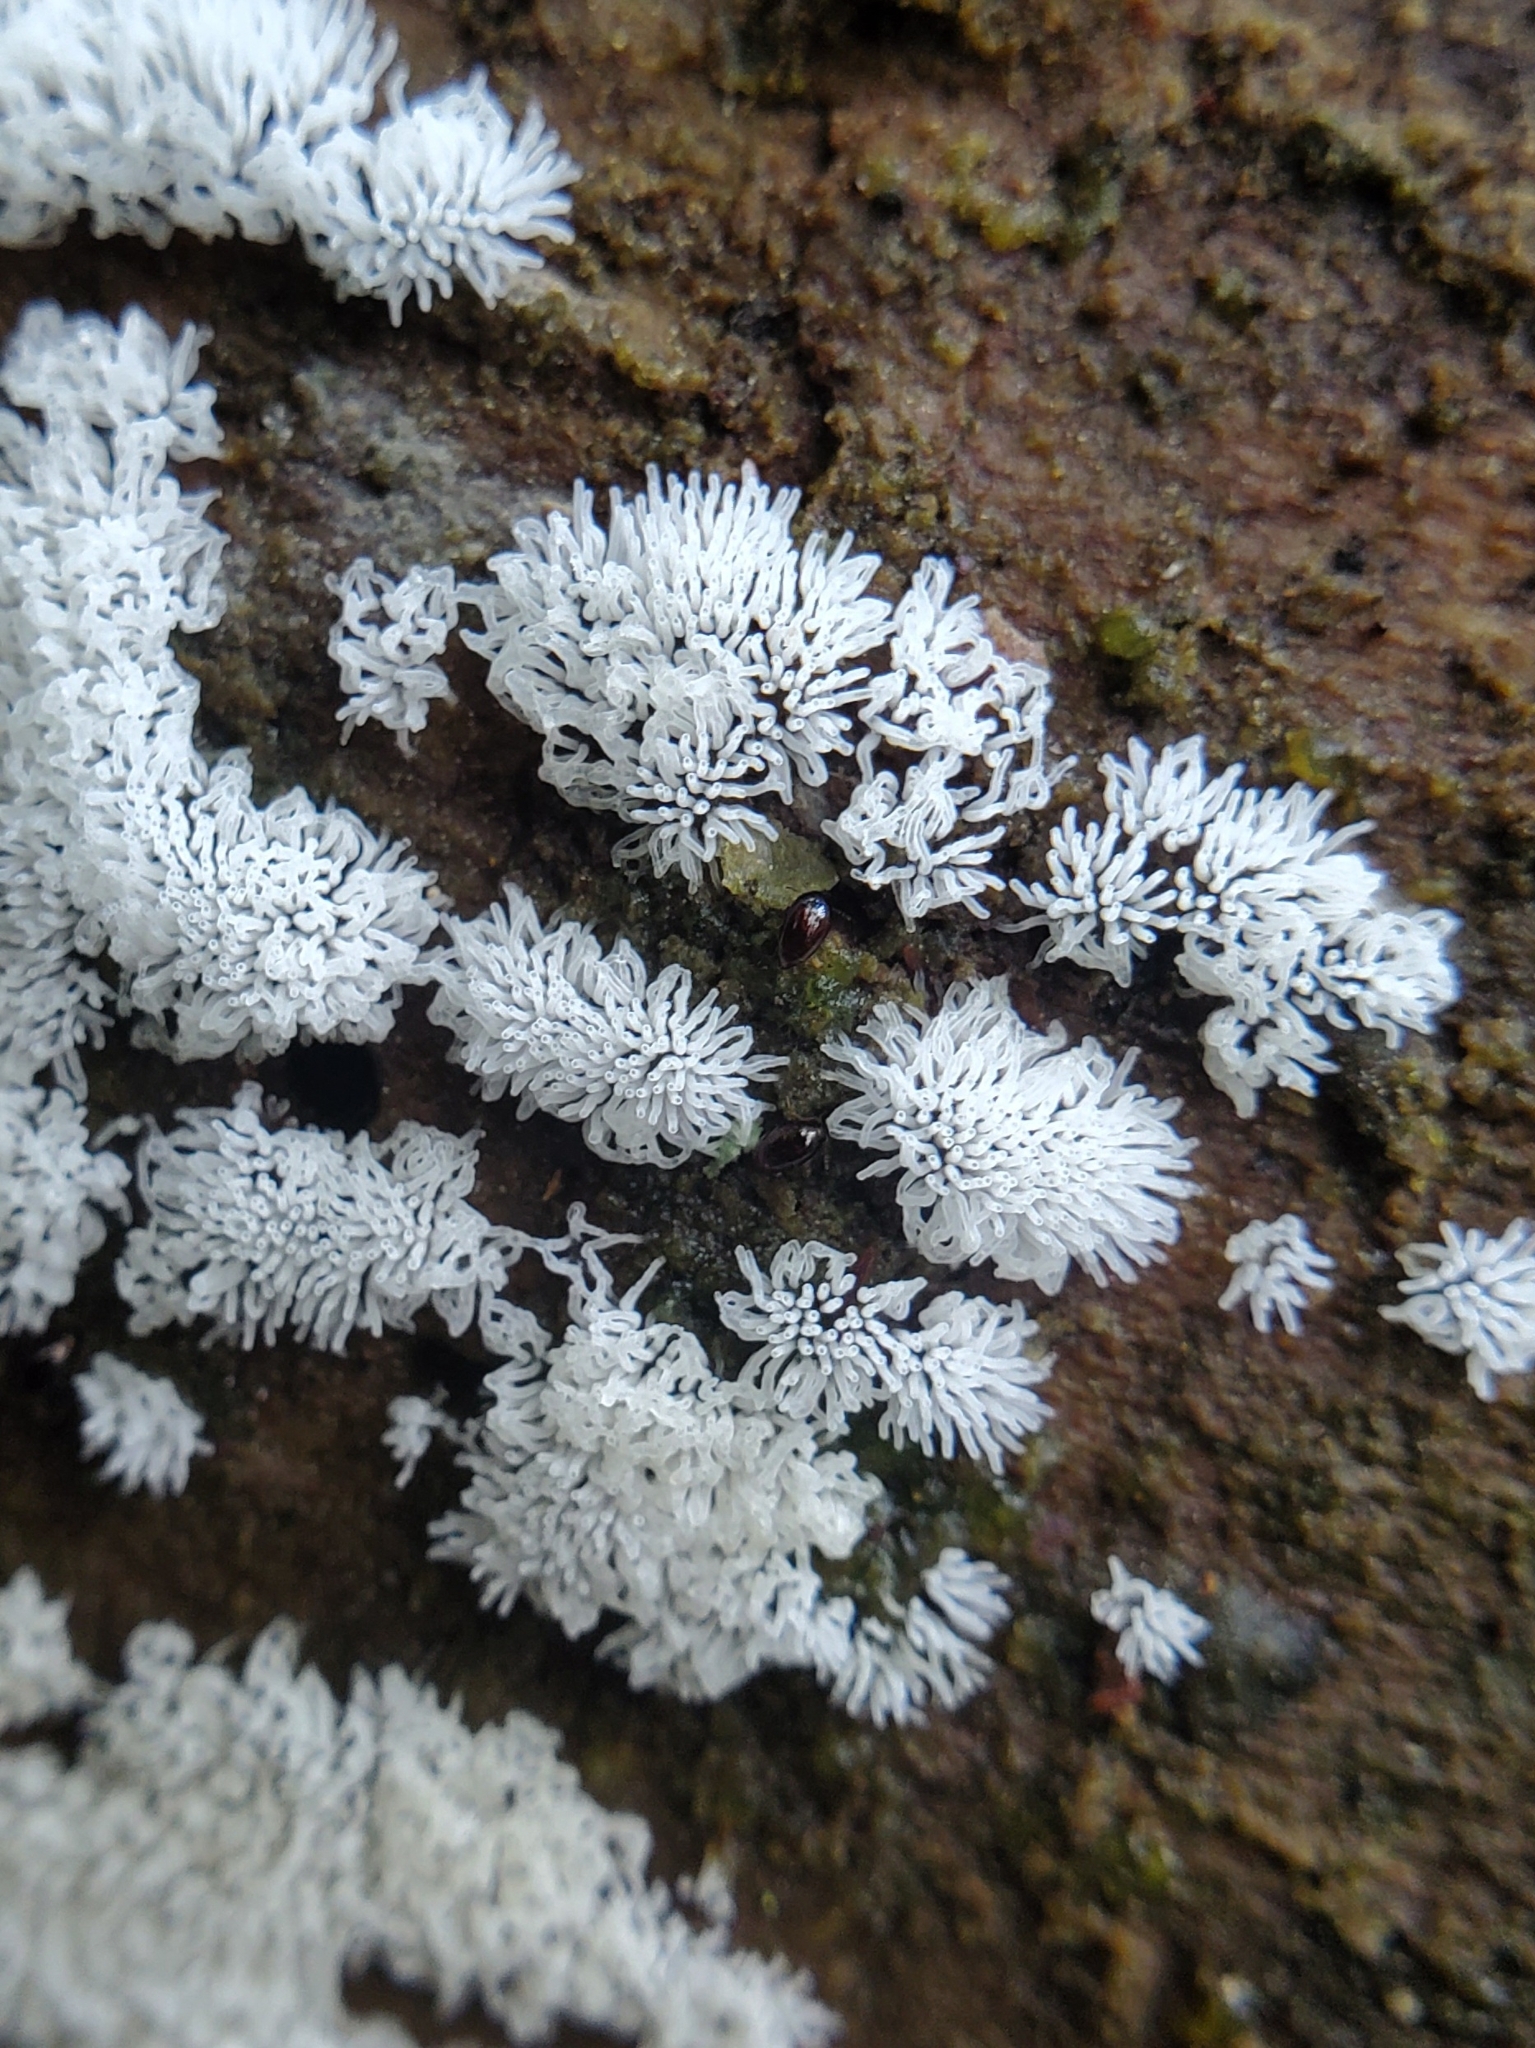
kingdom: Protozoa
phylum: Mycetozoa
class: Protosteliomycetes
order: Ceratiomyxales
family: Ceratiomyxaceae
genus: Ceratiomyxa
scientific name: Ceratiomyxa fruticulosa
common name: Honeycomb coral slime mold
